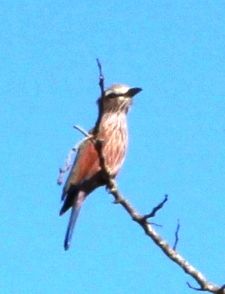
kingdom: Animalia
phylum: Chordata
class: Aves
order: Coraciiformes
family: Coraciidae
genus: Coracias
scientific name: Coracias naevius
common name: Purple roller
